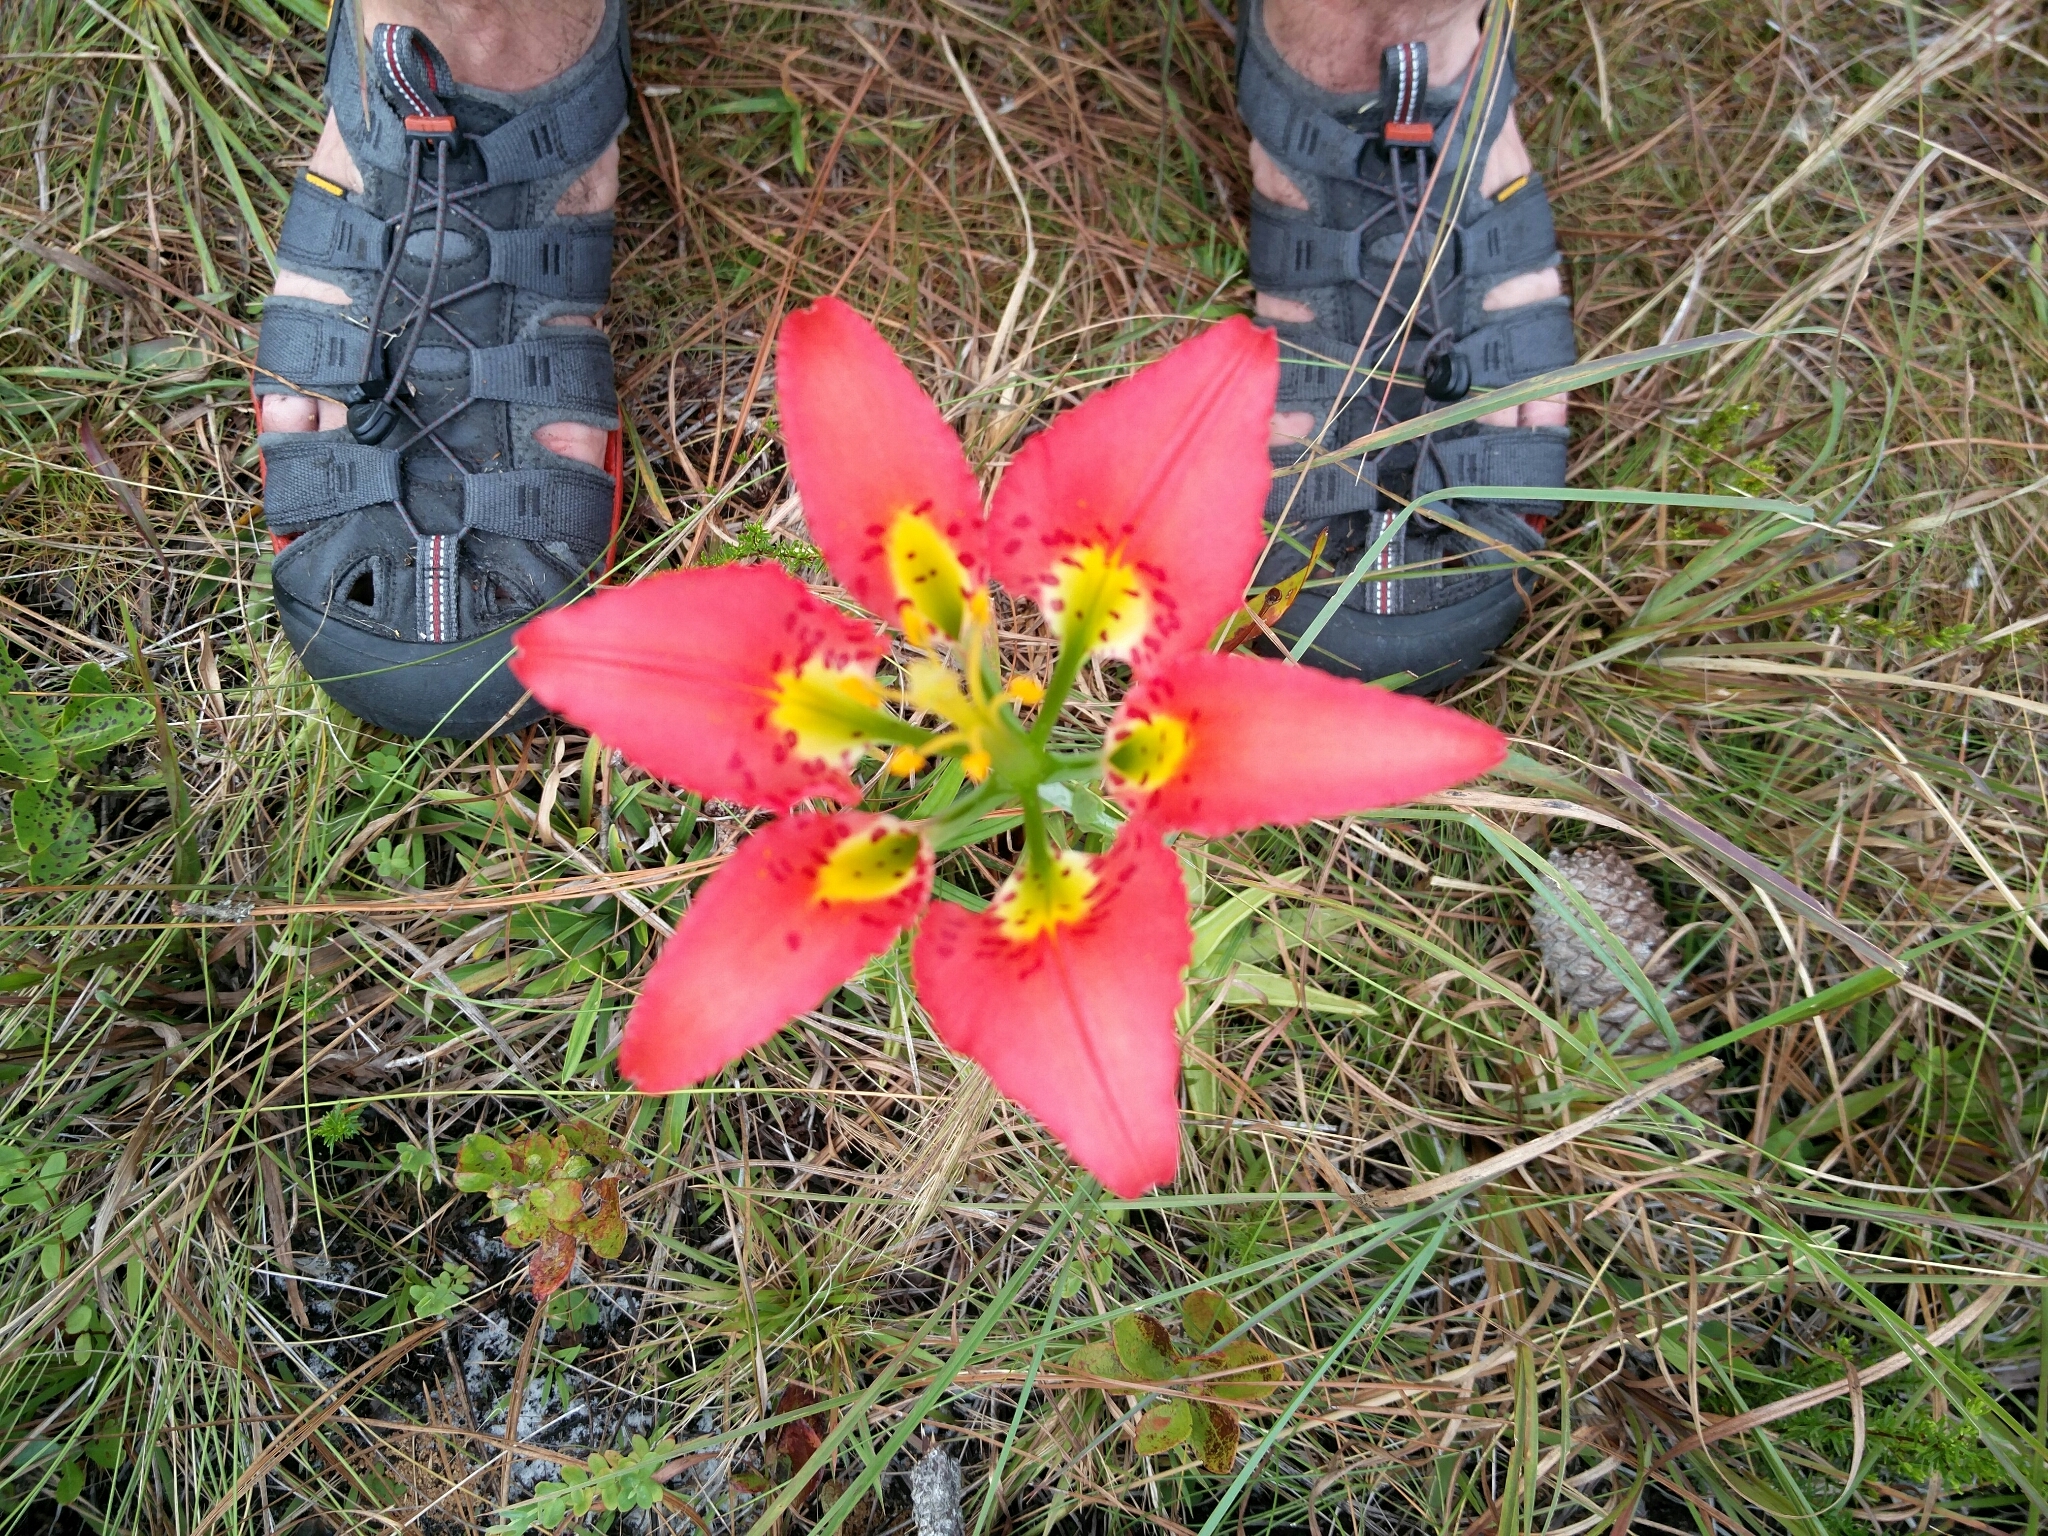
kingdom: Plantae
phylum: Tracheophyta
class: Liliopsida
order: Liliales
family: Liliaceae
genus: Lilium
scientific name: Lilium catesbaei
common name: Catesby's lily
